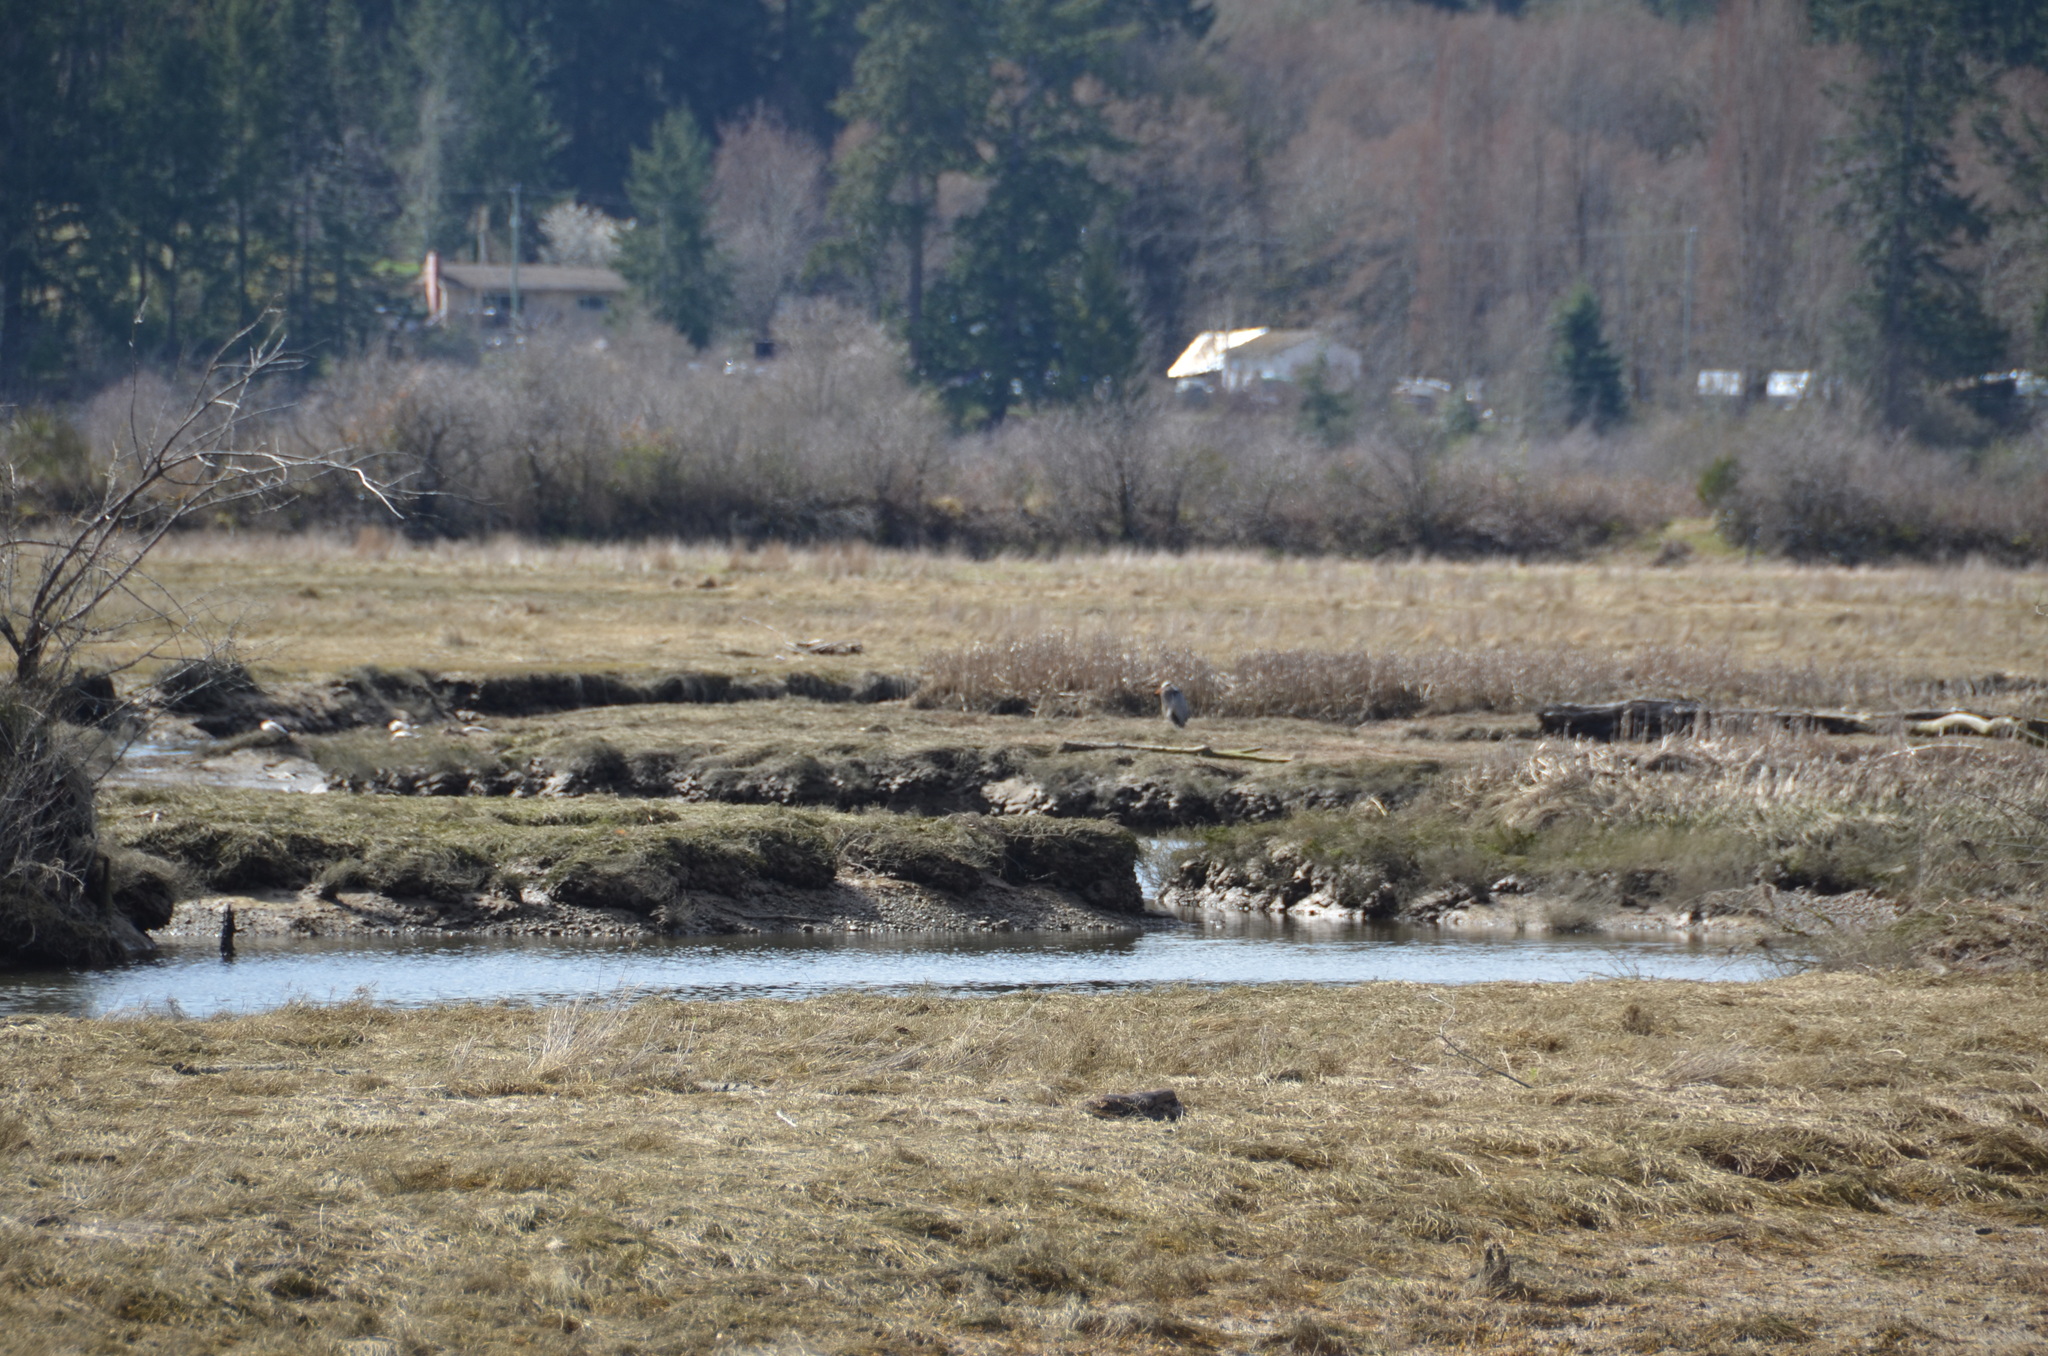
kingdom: Animalia
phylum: Chordata
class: Aves
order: Pelecaniformes
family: Ardeidae
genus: Ardea
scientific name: Ardea herodias
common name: Great blue heron
